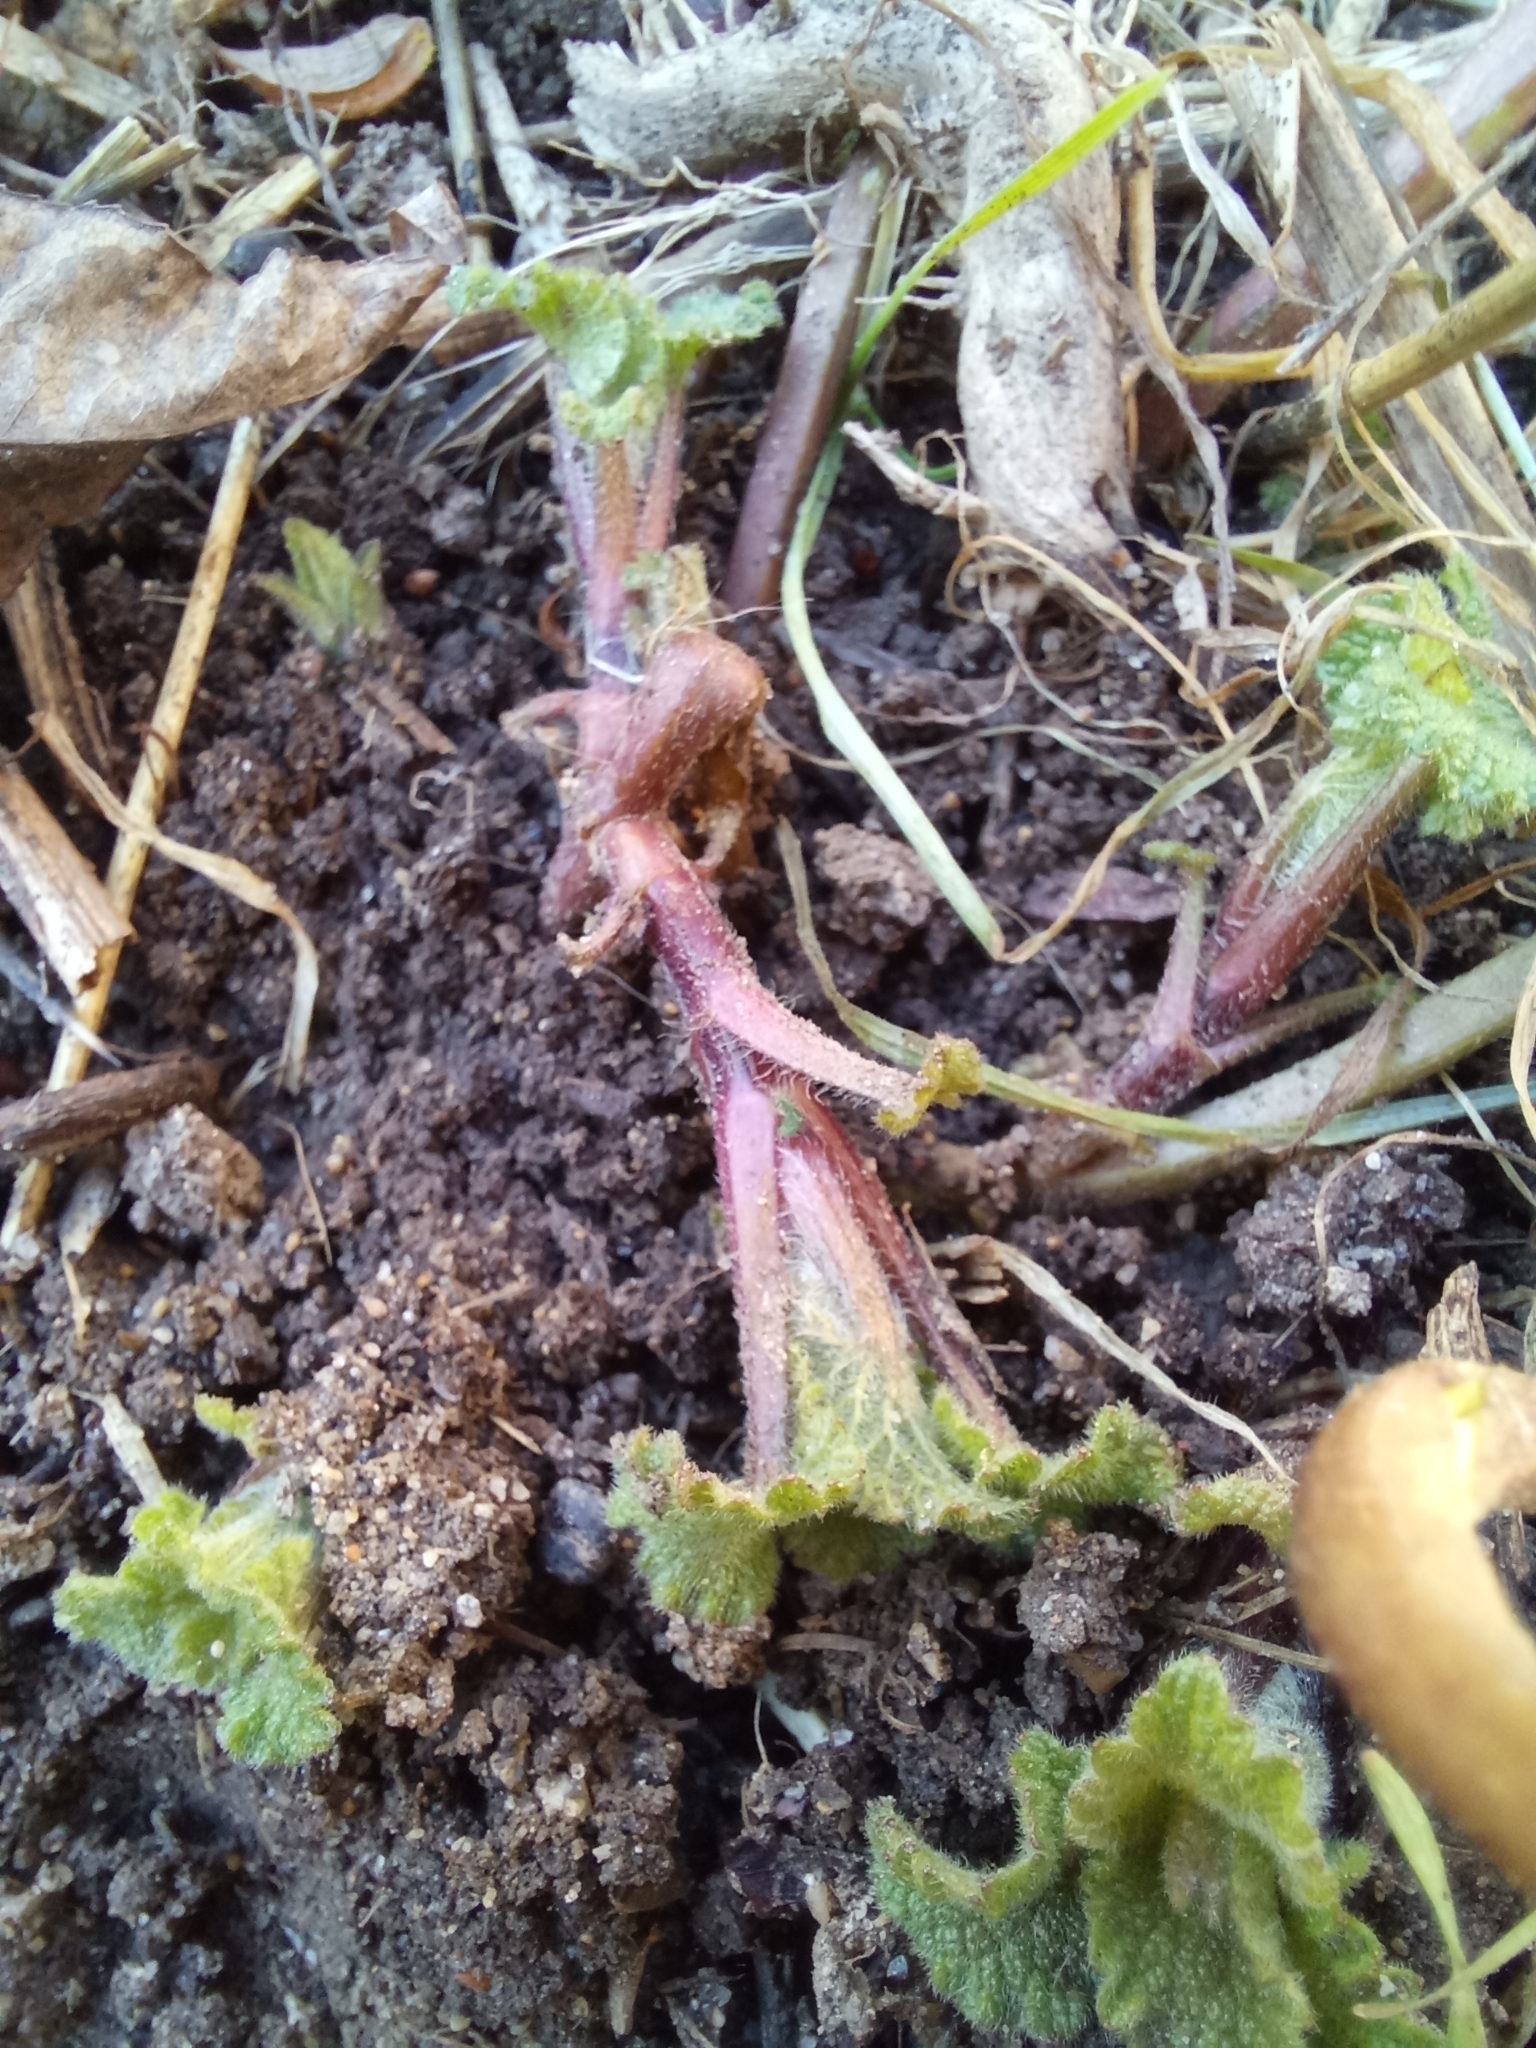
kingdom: Plantae
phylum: Tracheophyta
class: Magnoliopsida
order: Lamiales
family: Lamiaceae
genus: Lamium
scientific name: Lamium album
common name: White dead-nettle
